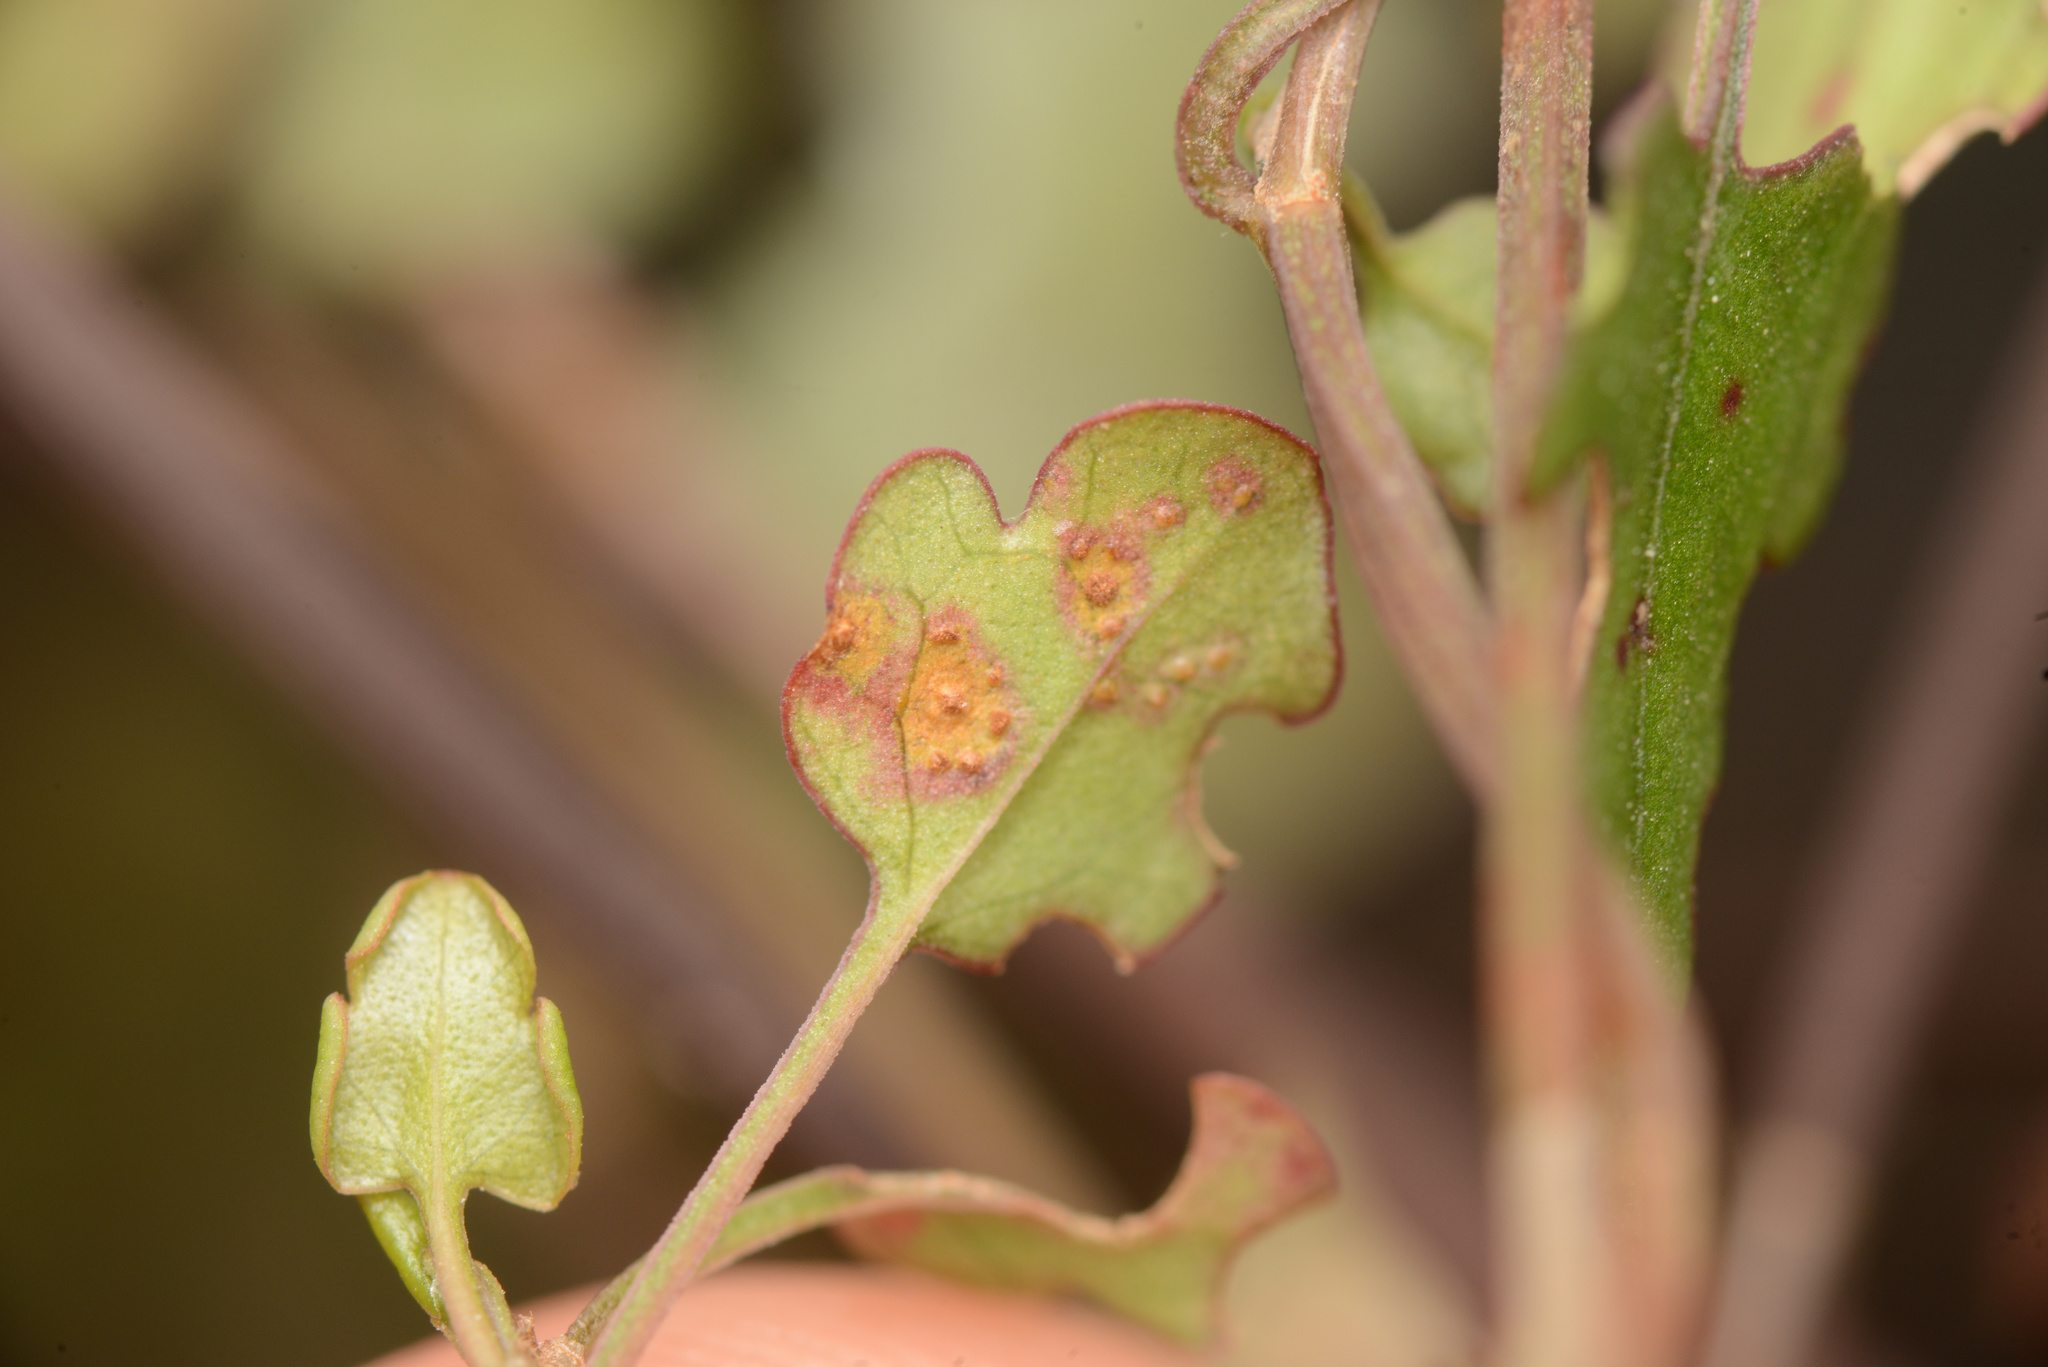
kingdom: Fungi
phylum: Basidiomycota
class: Pucciniomycetes
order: Pucciniales
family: Pucciniaceae
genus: Puccinia
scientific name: Puccinia otagensis
